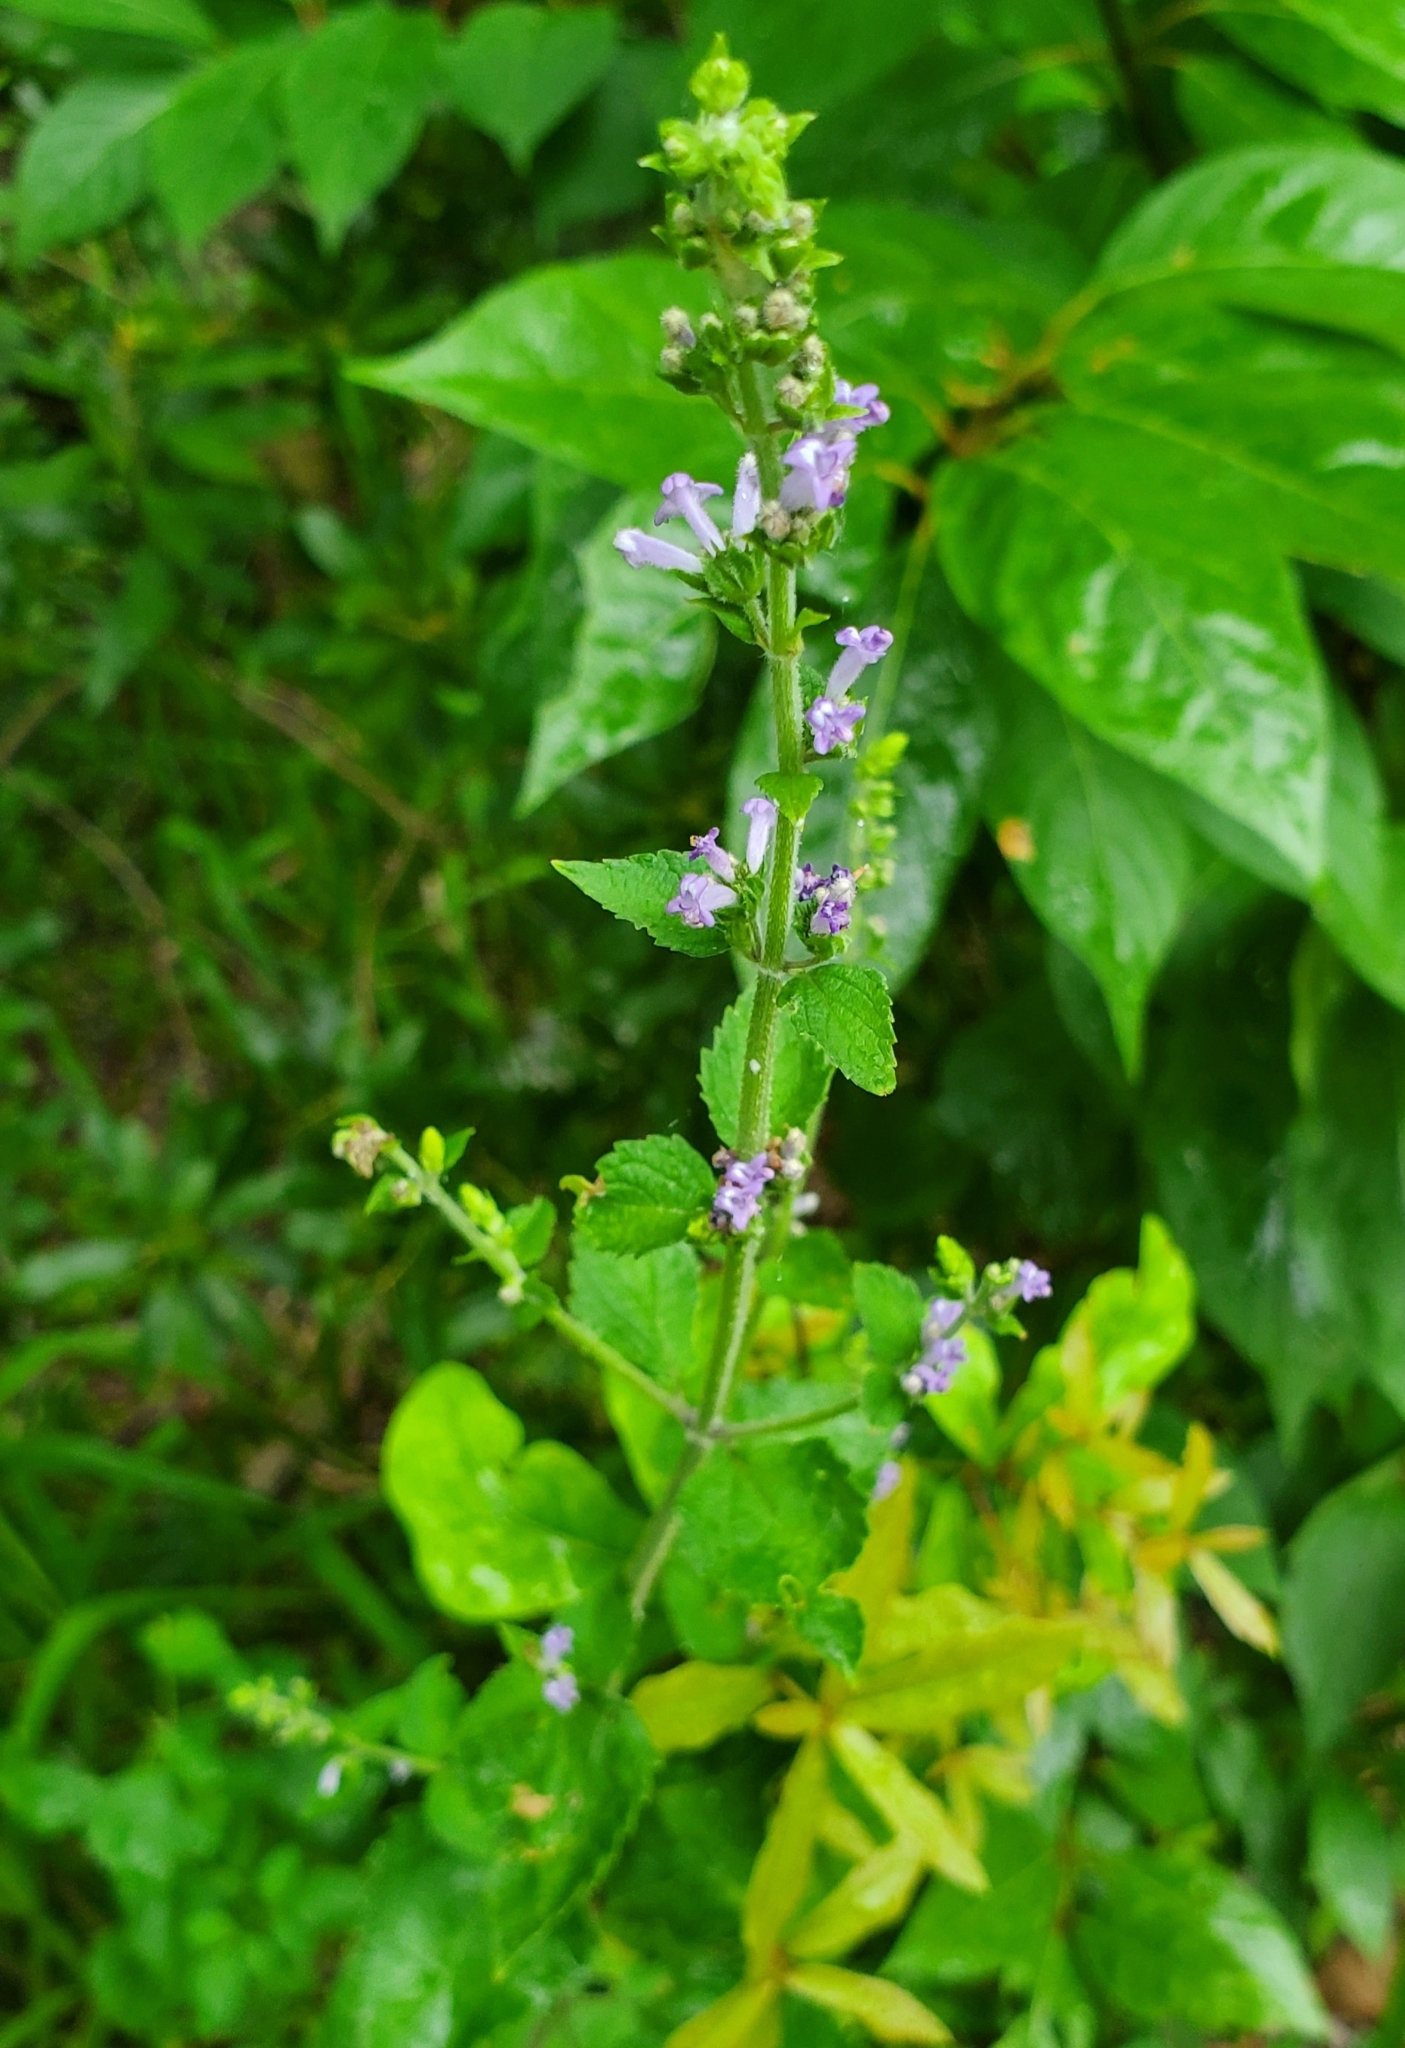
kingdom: Plantae
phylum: Tracheophyta
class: Magnoliopsida
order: Lamiales
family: Lamiaceae
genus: Cantinoa
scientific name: Cantinoa mutabilis
